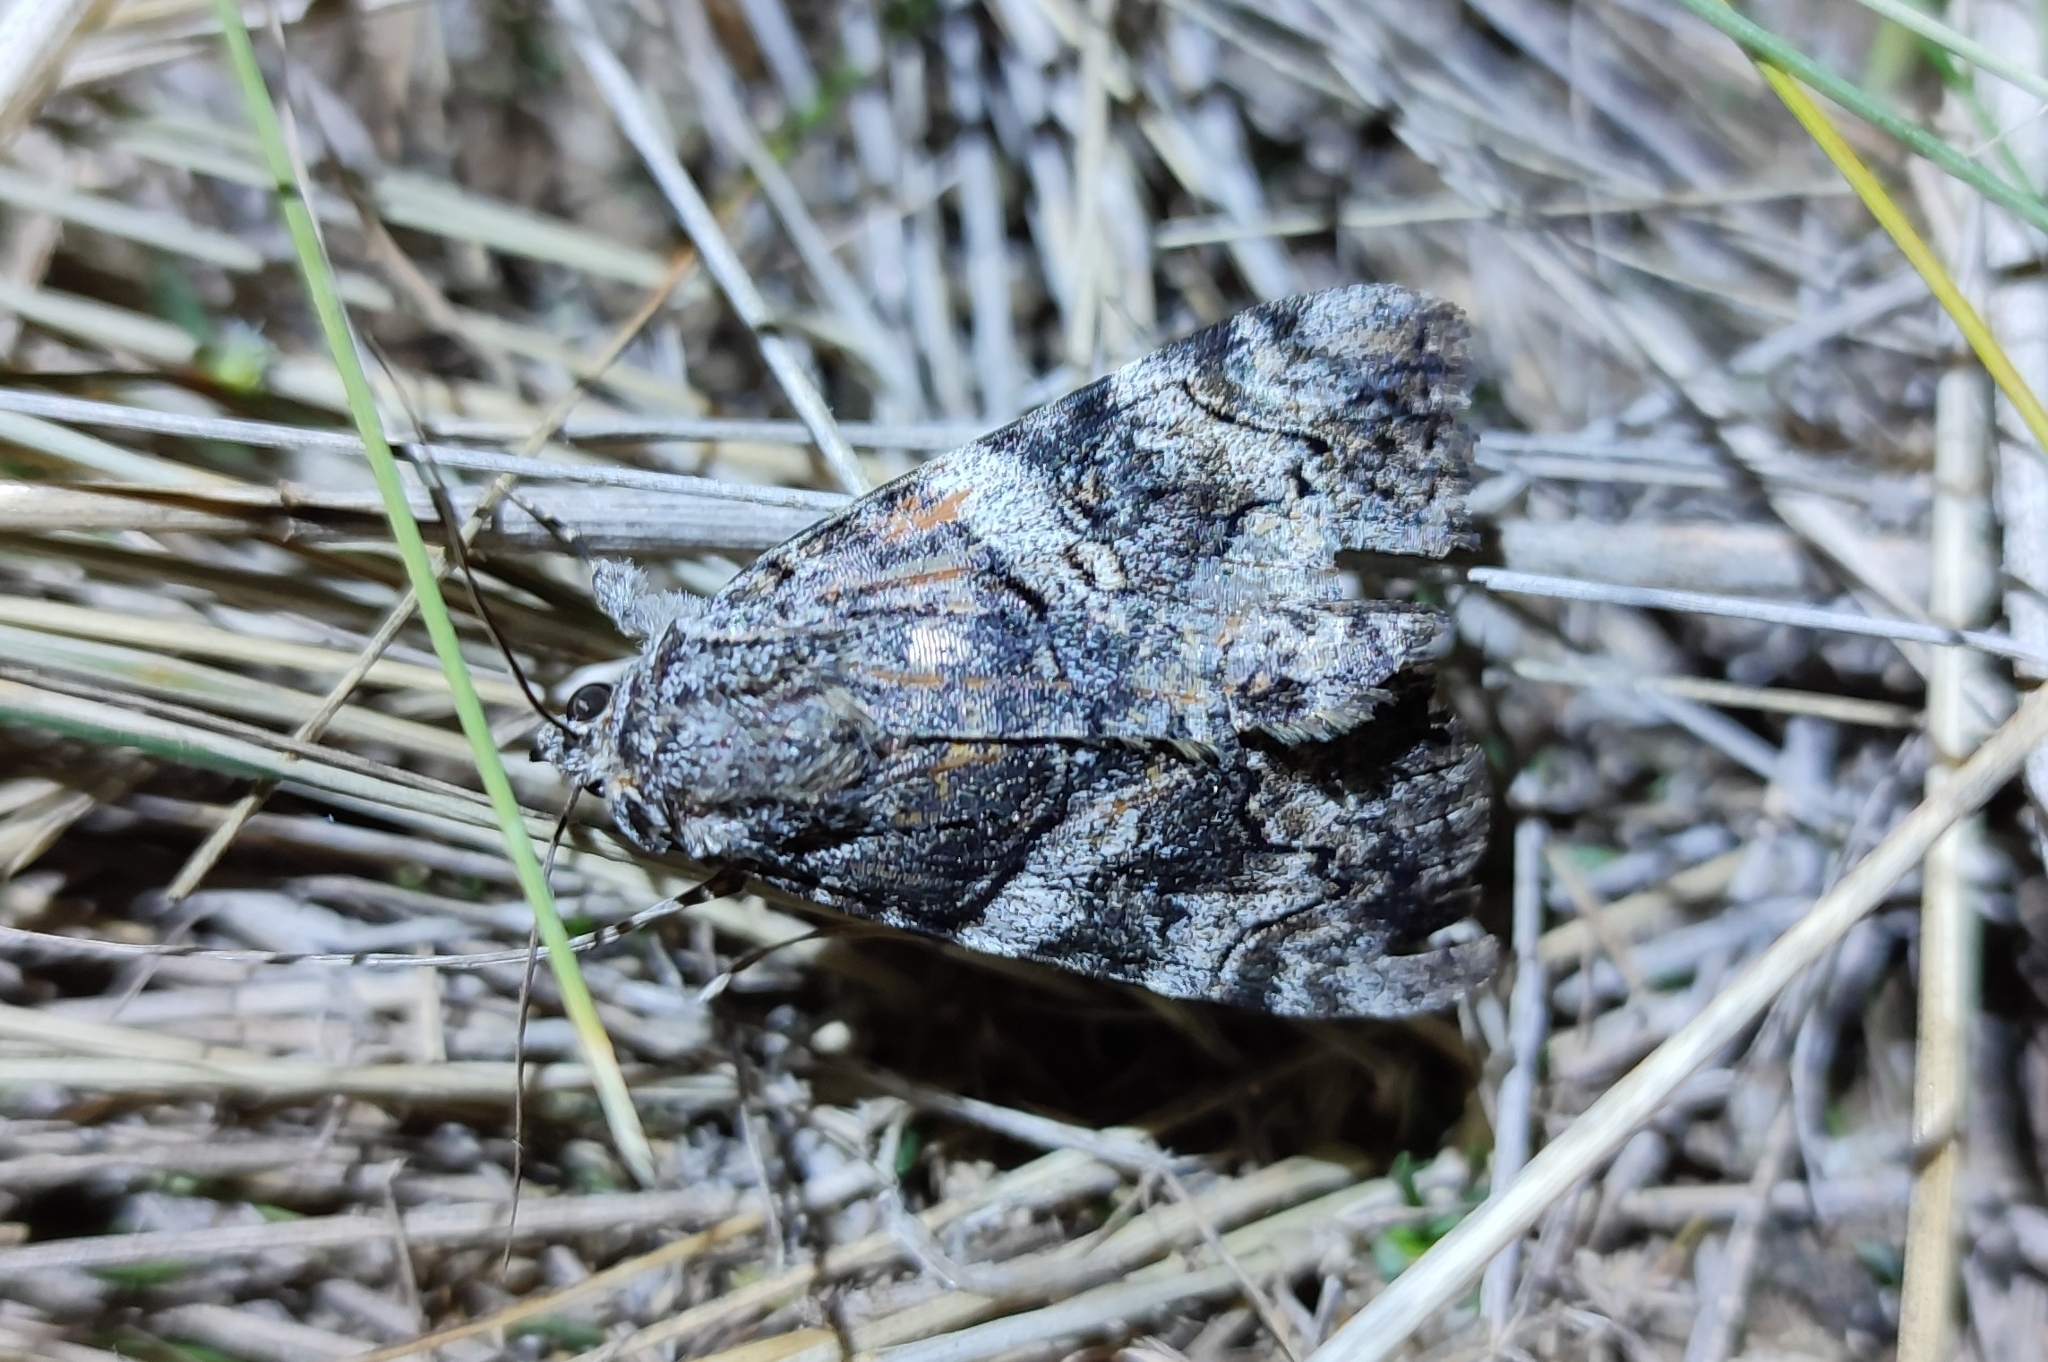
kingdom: Animalia
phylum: Arthropoda
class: Insecta
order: Lepidoptera
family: Erebidae
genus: Catocala
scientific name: Catocala proxeneta
